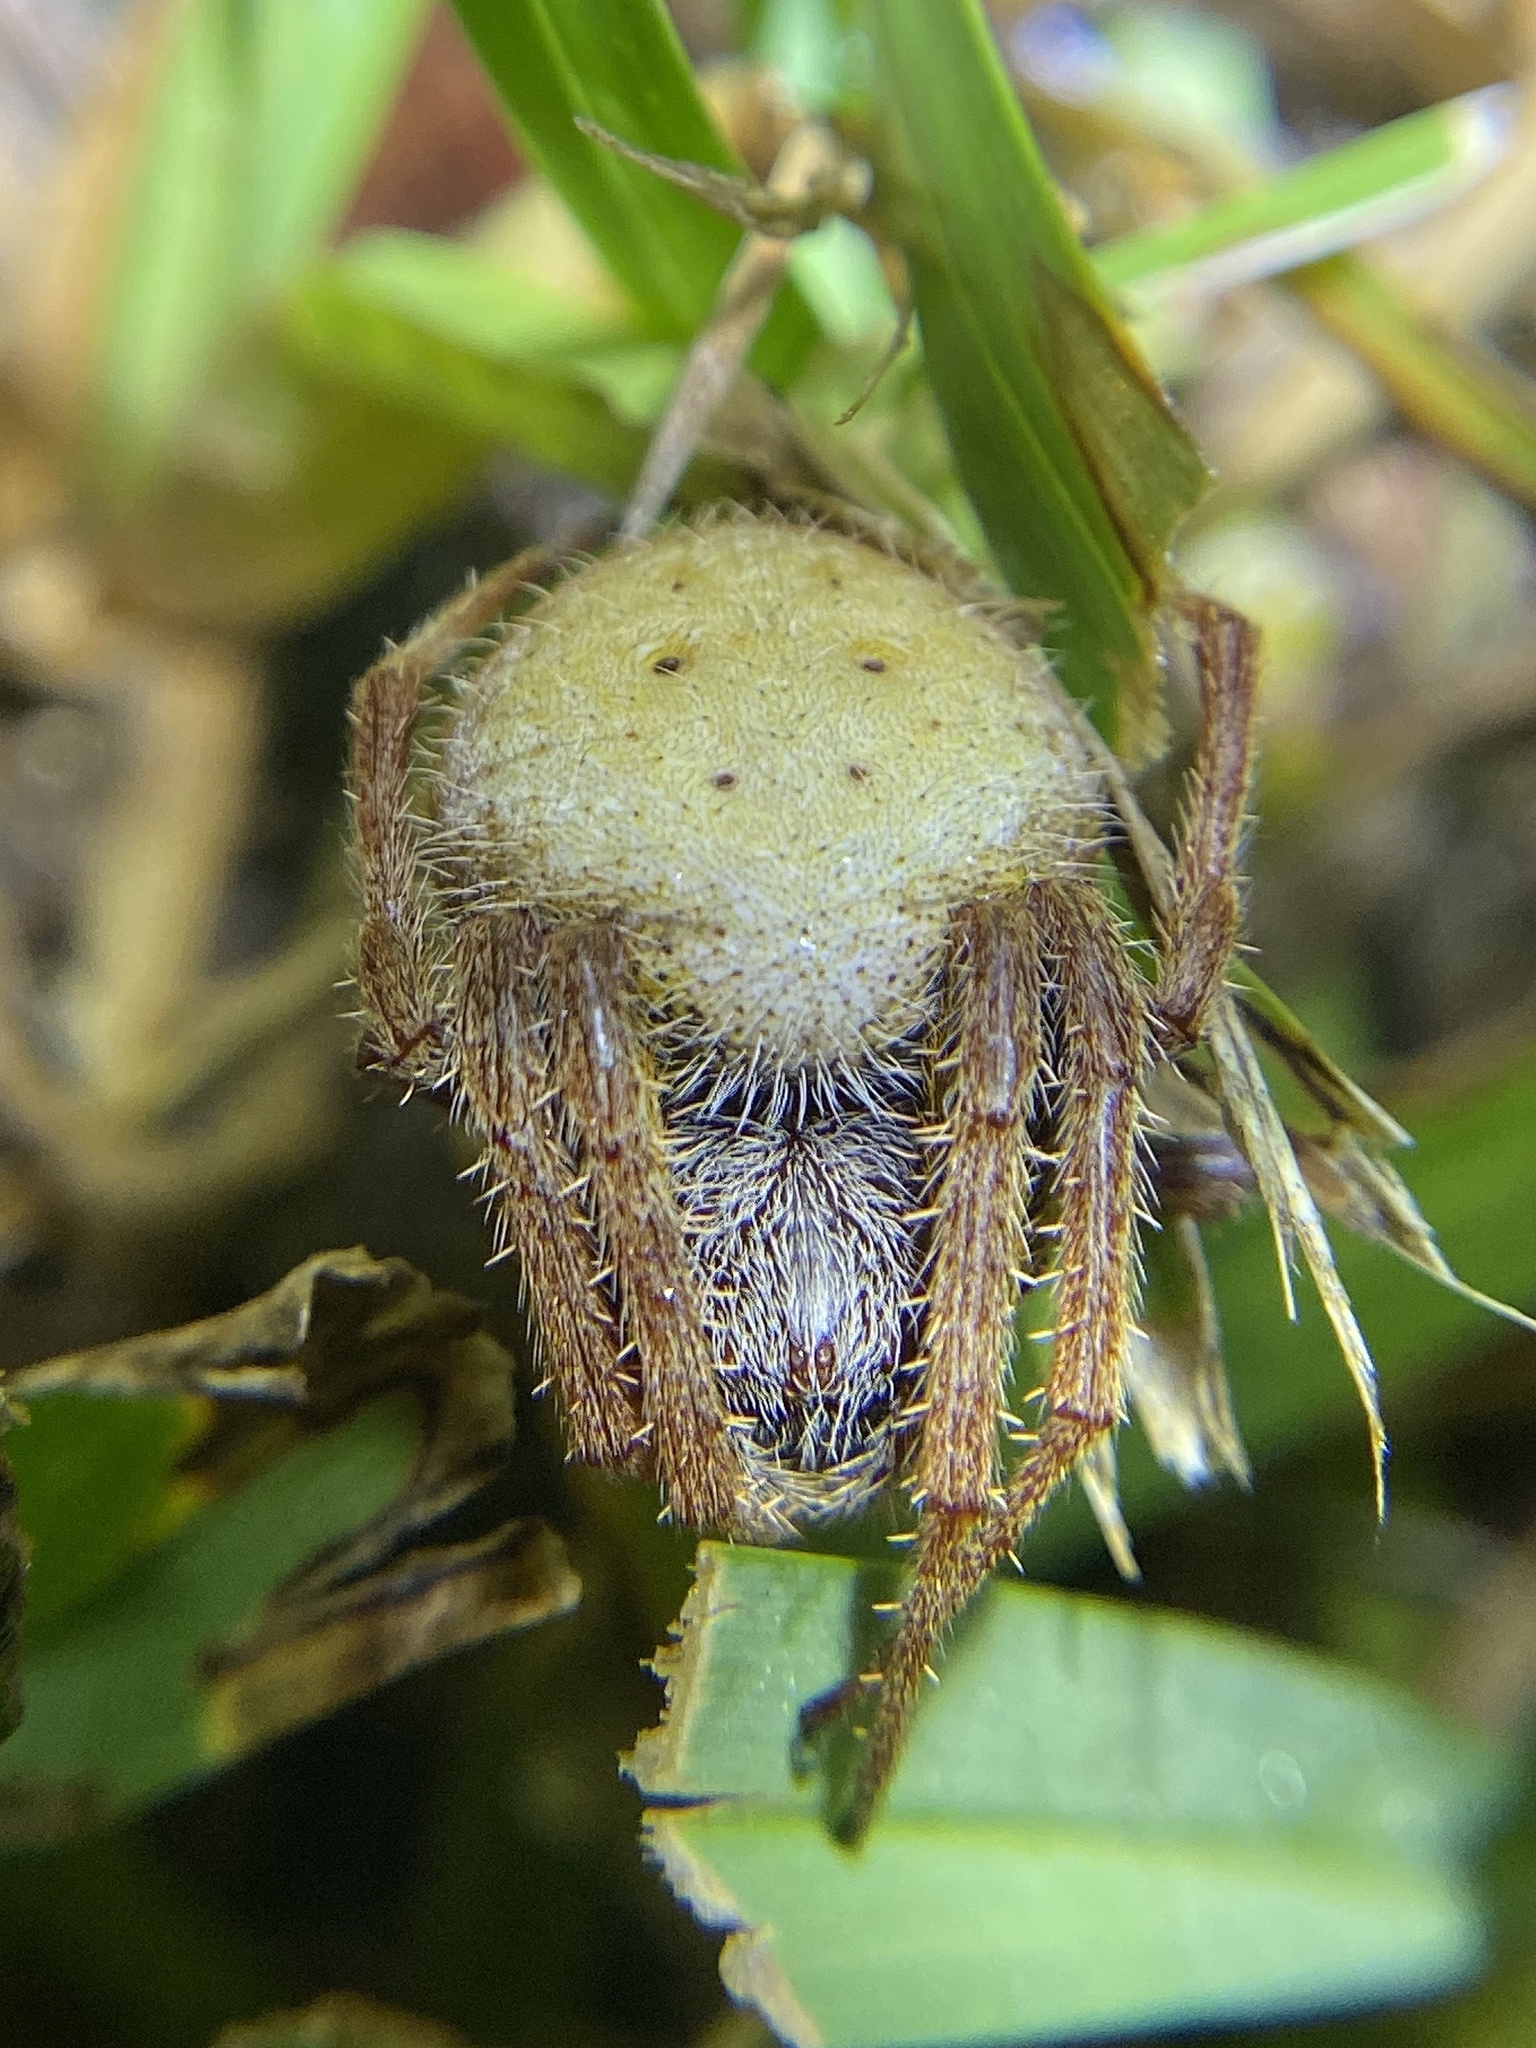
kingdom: Animalia
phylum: Arthropoda
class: Arachnida
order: Araneae
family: Araneidae
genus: Eriophora
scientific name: Eriophora ravilla
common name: Orb weavers
